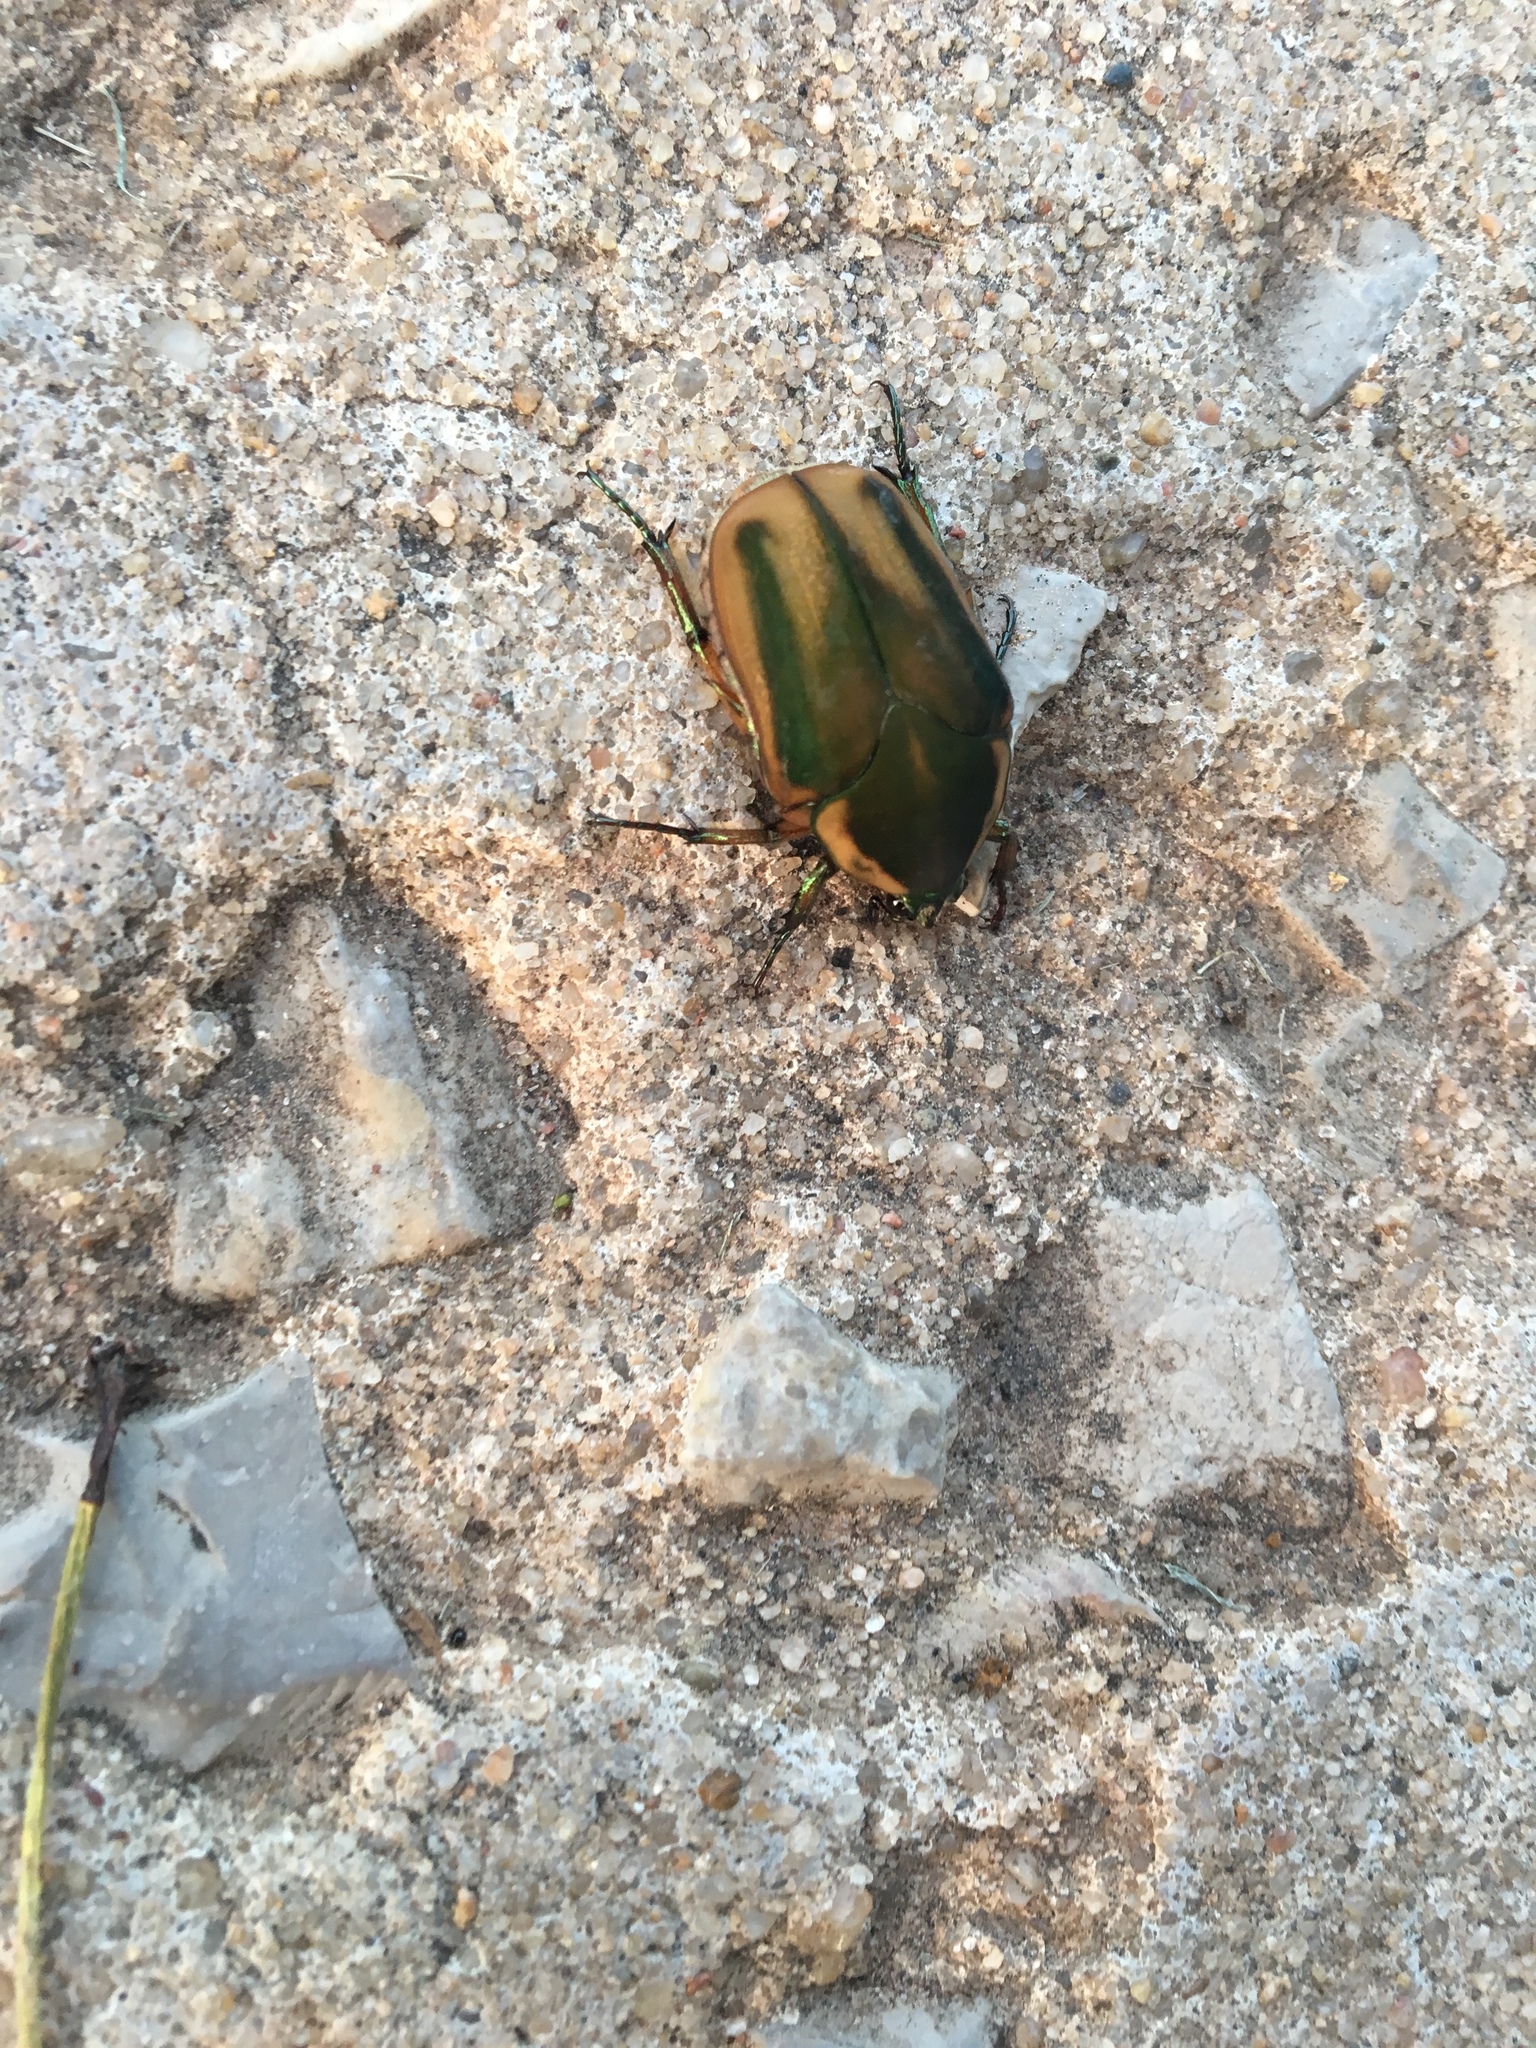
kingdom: Animalia
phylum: Arthropoda
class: Insecta
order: Coleoptera
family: Scarabaeidae
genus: Cotinis
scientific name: Cotinis nitida
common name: Common green june beetle
